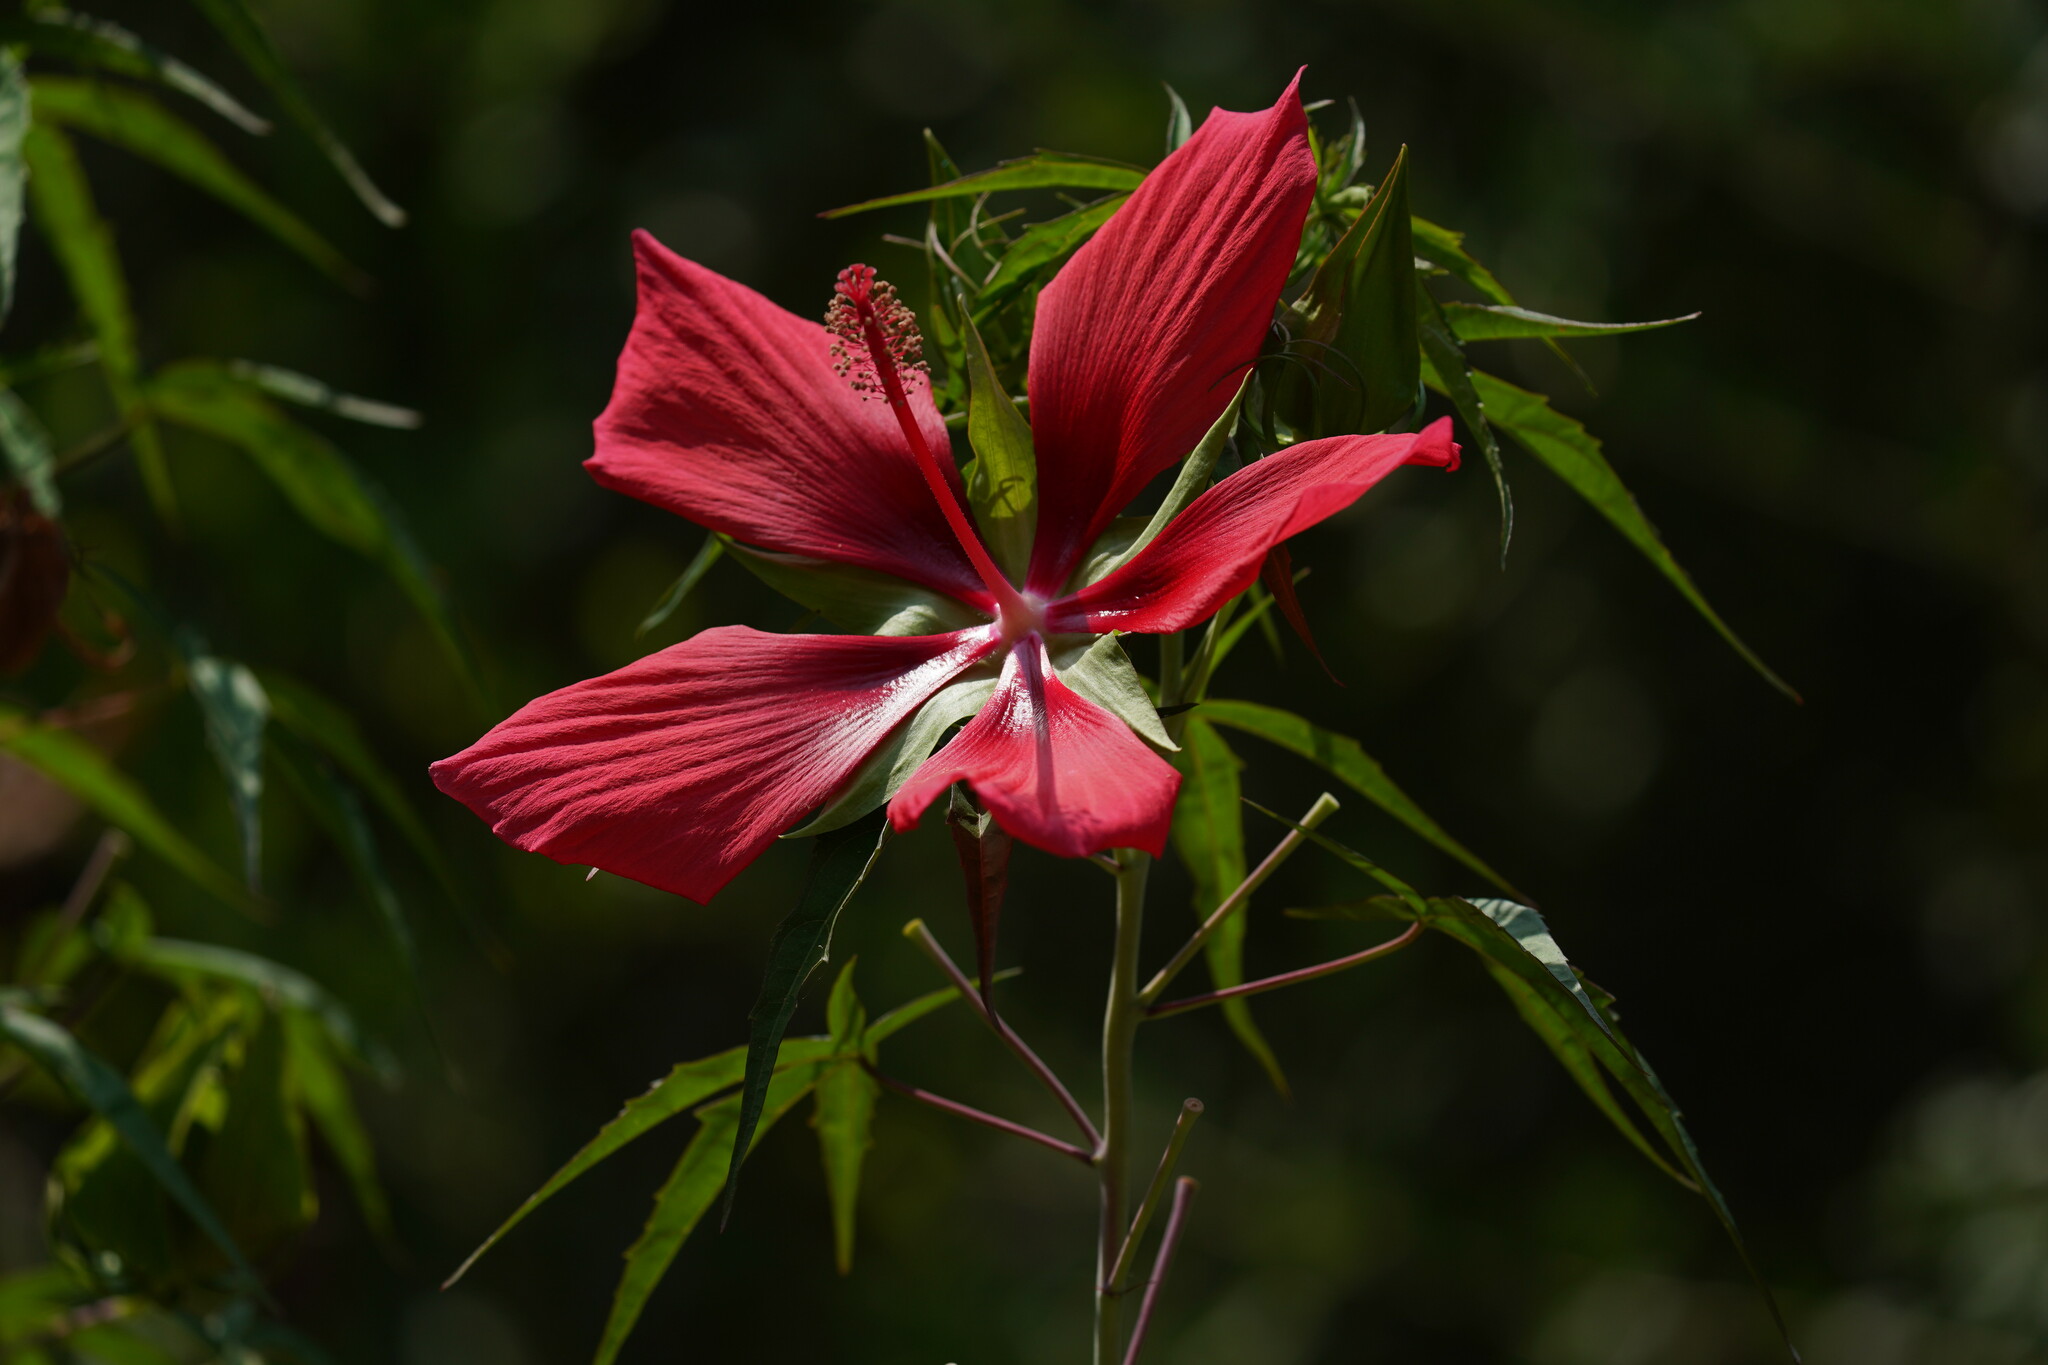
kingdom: Plantae
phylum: Tracheophyta
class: Magnoliopsida
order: Malvales
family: Malvaceae
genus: Hibiscus
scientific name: Hibiscus coccineus
